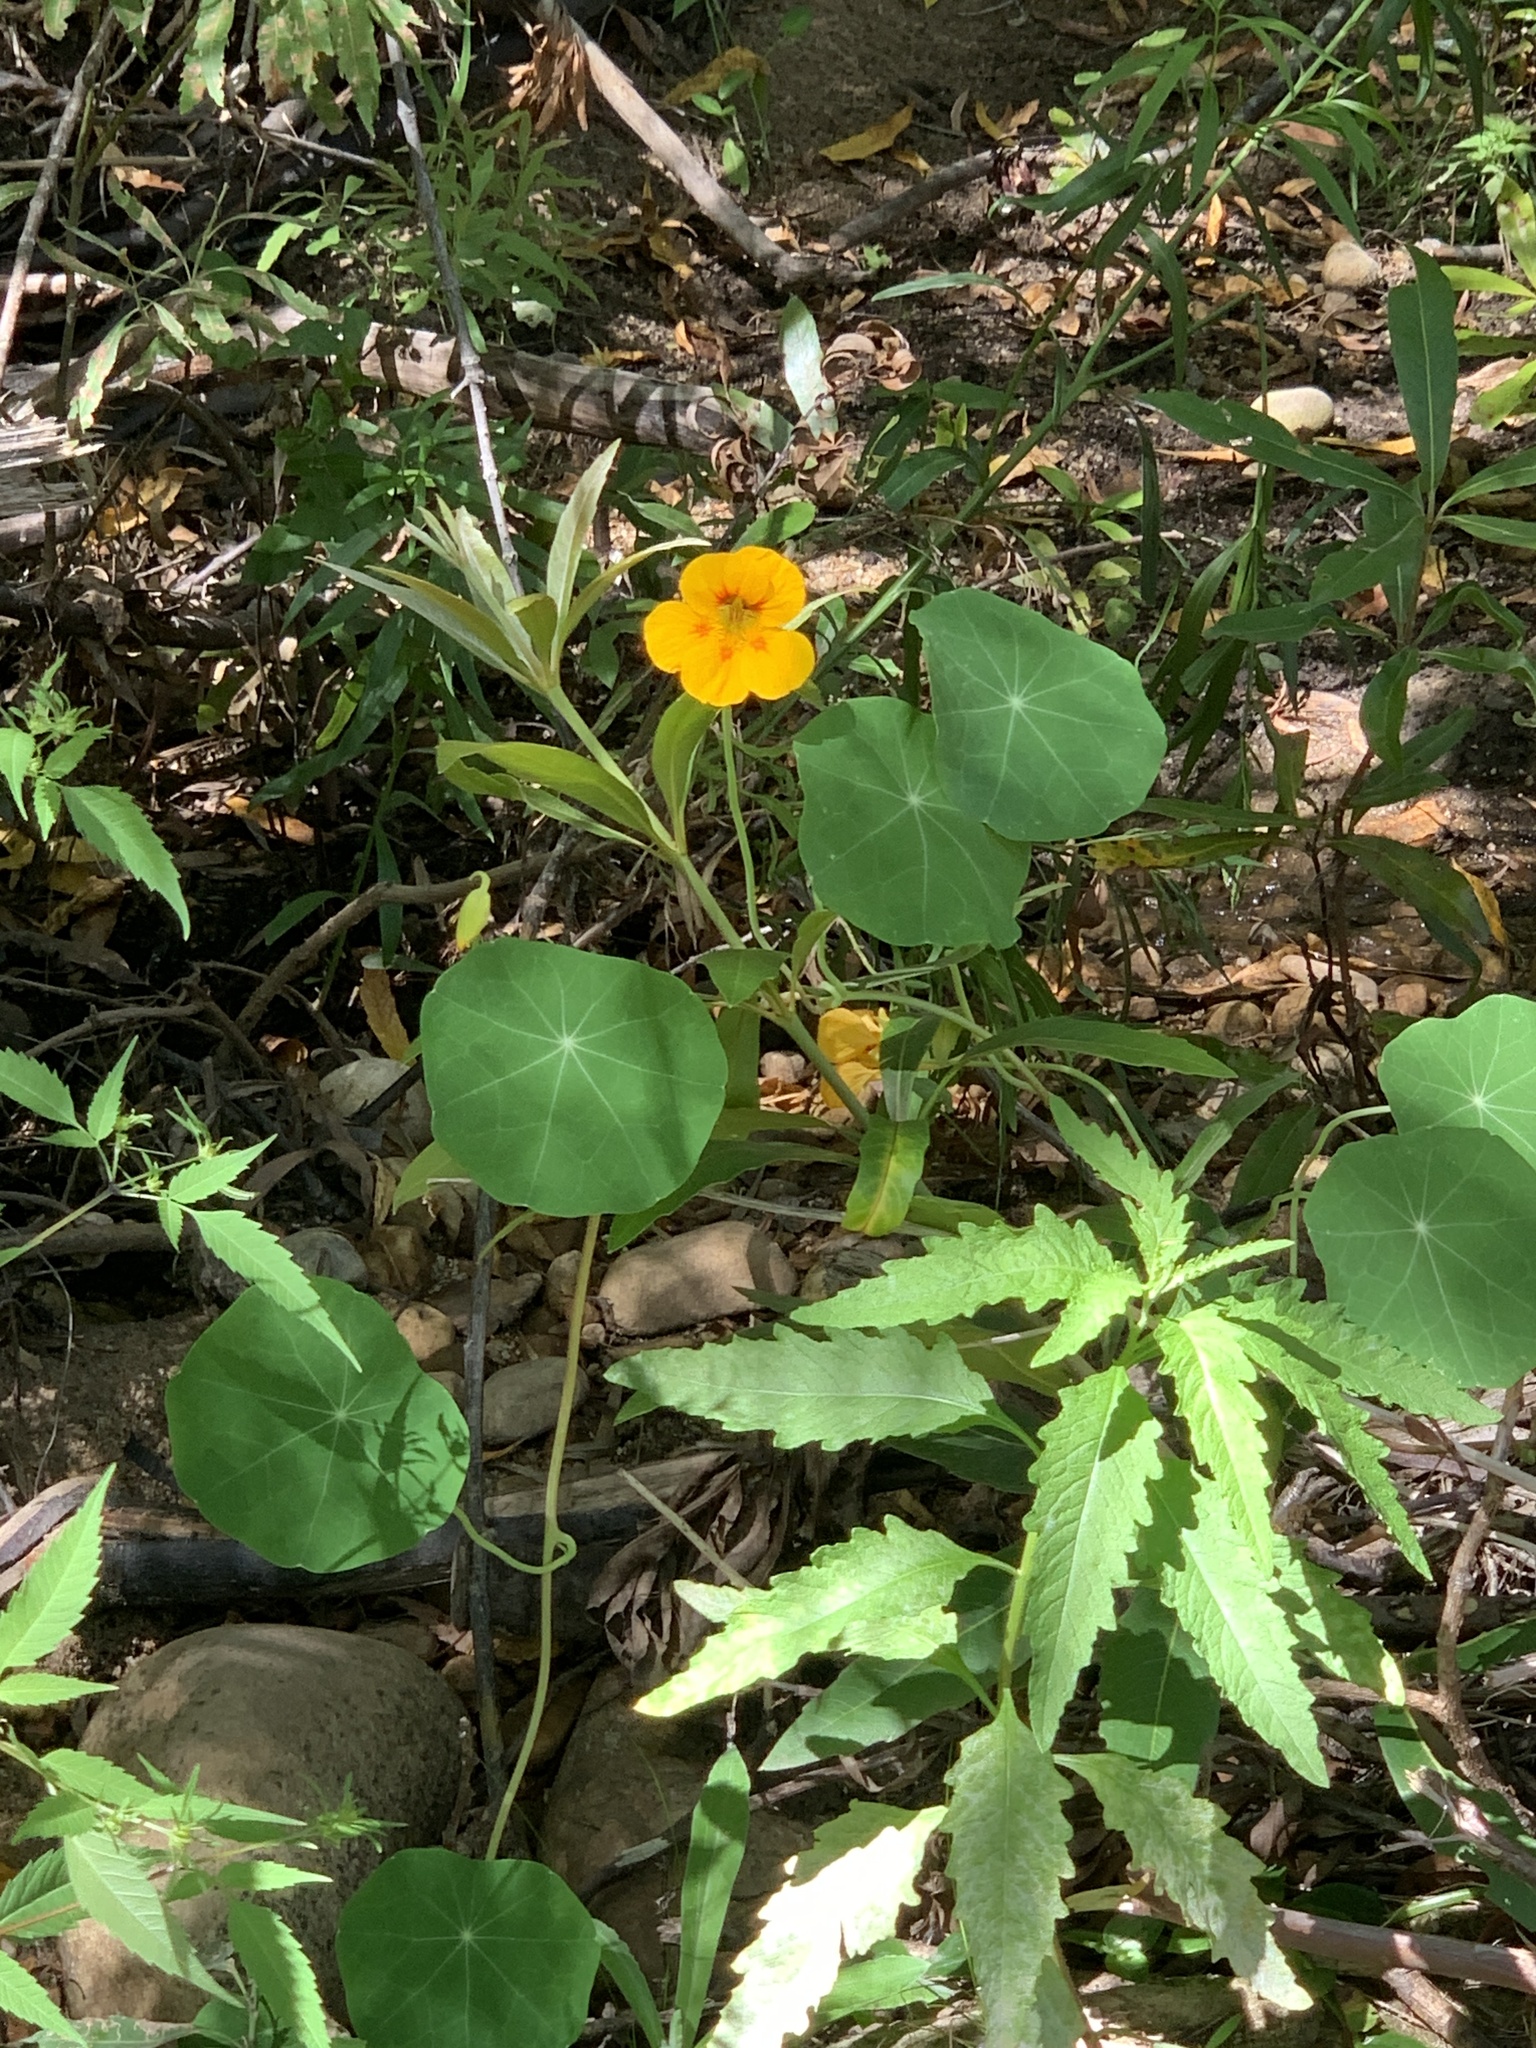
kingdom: Plantae
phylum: Tracheophyta
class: Magnoliopsida
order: Brassicales
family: Tropaeolaceae
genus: Tropaeolum
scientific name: Tropaeolum majus
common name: Nasturtium
